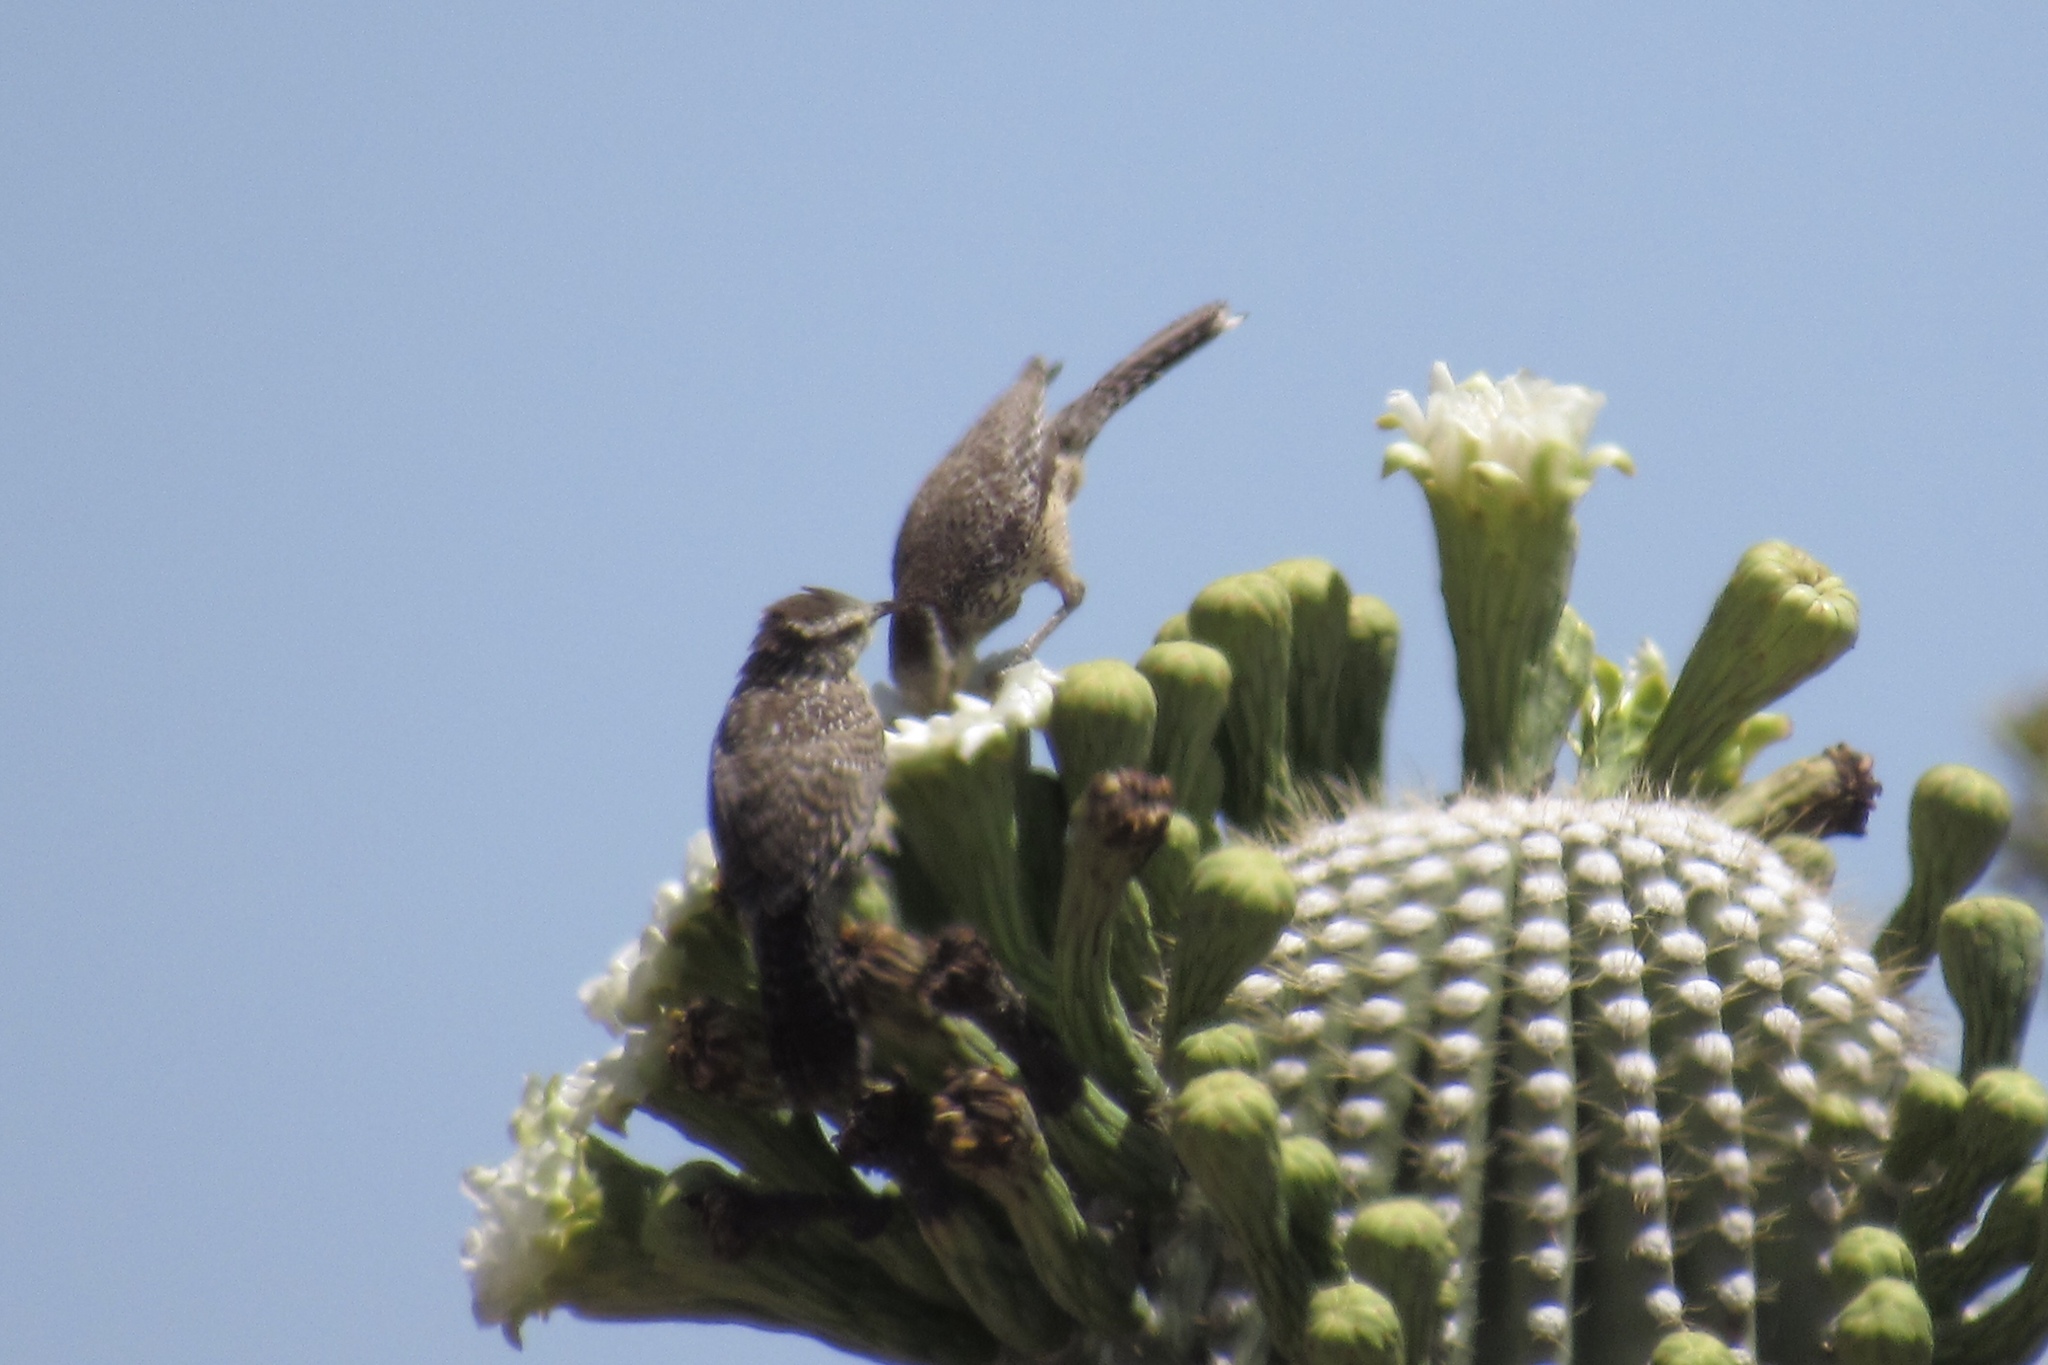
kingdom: Animalia
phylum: Chordata
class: Aves
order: Passeriformes
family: Troglodytidae
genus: Campylorhynchus
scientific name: Campylorhynchus brunneicapillus
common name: Cactus wren
